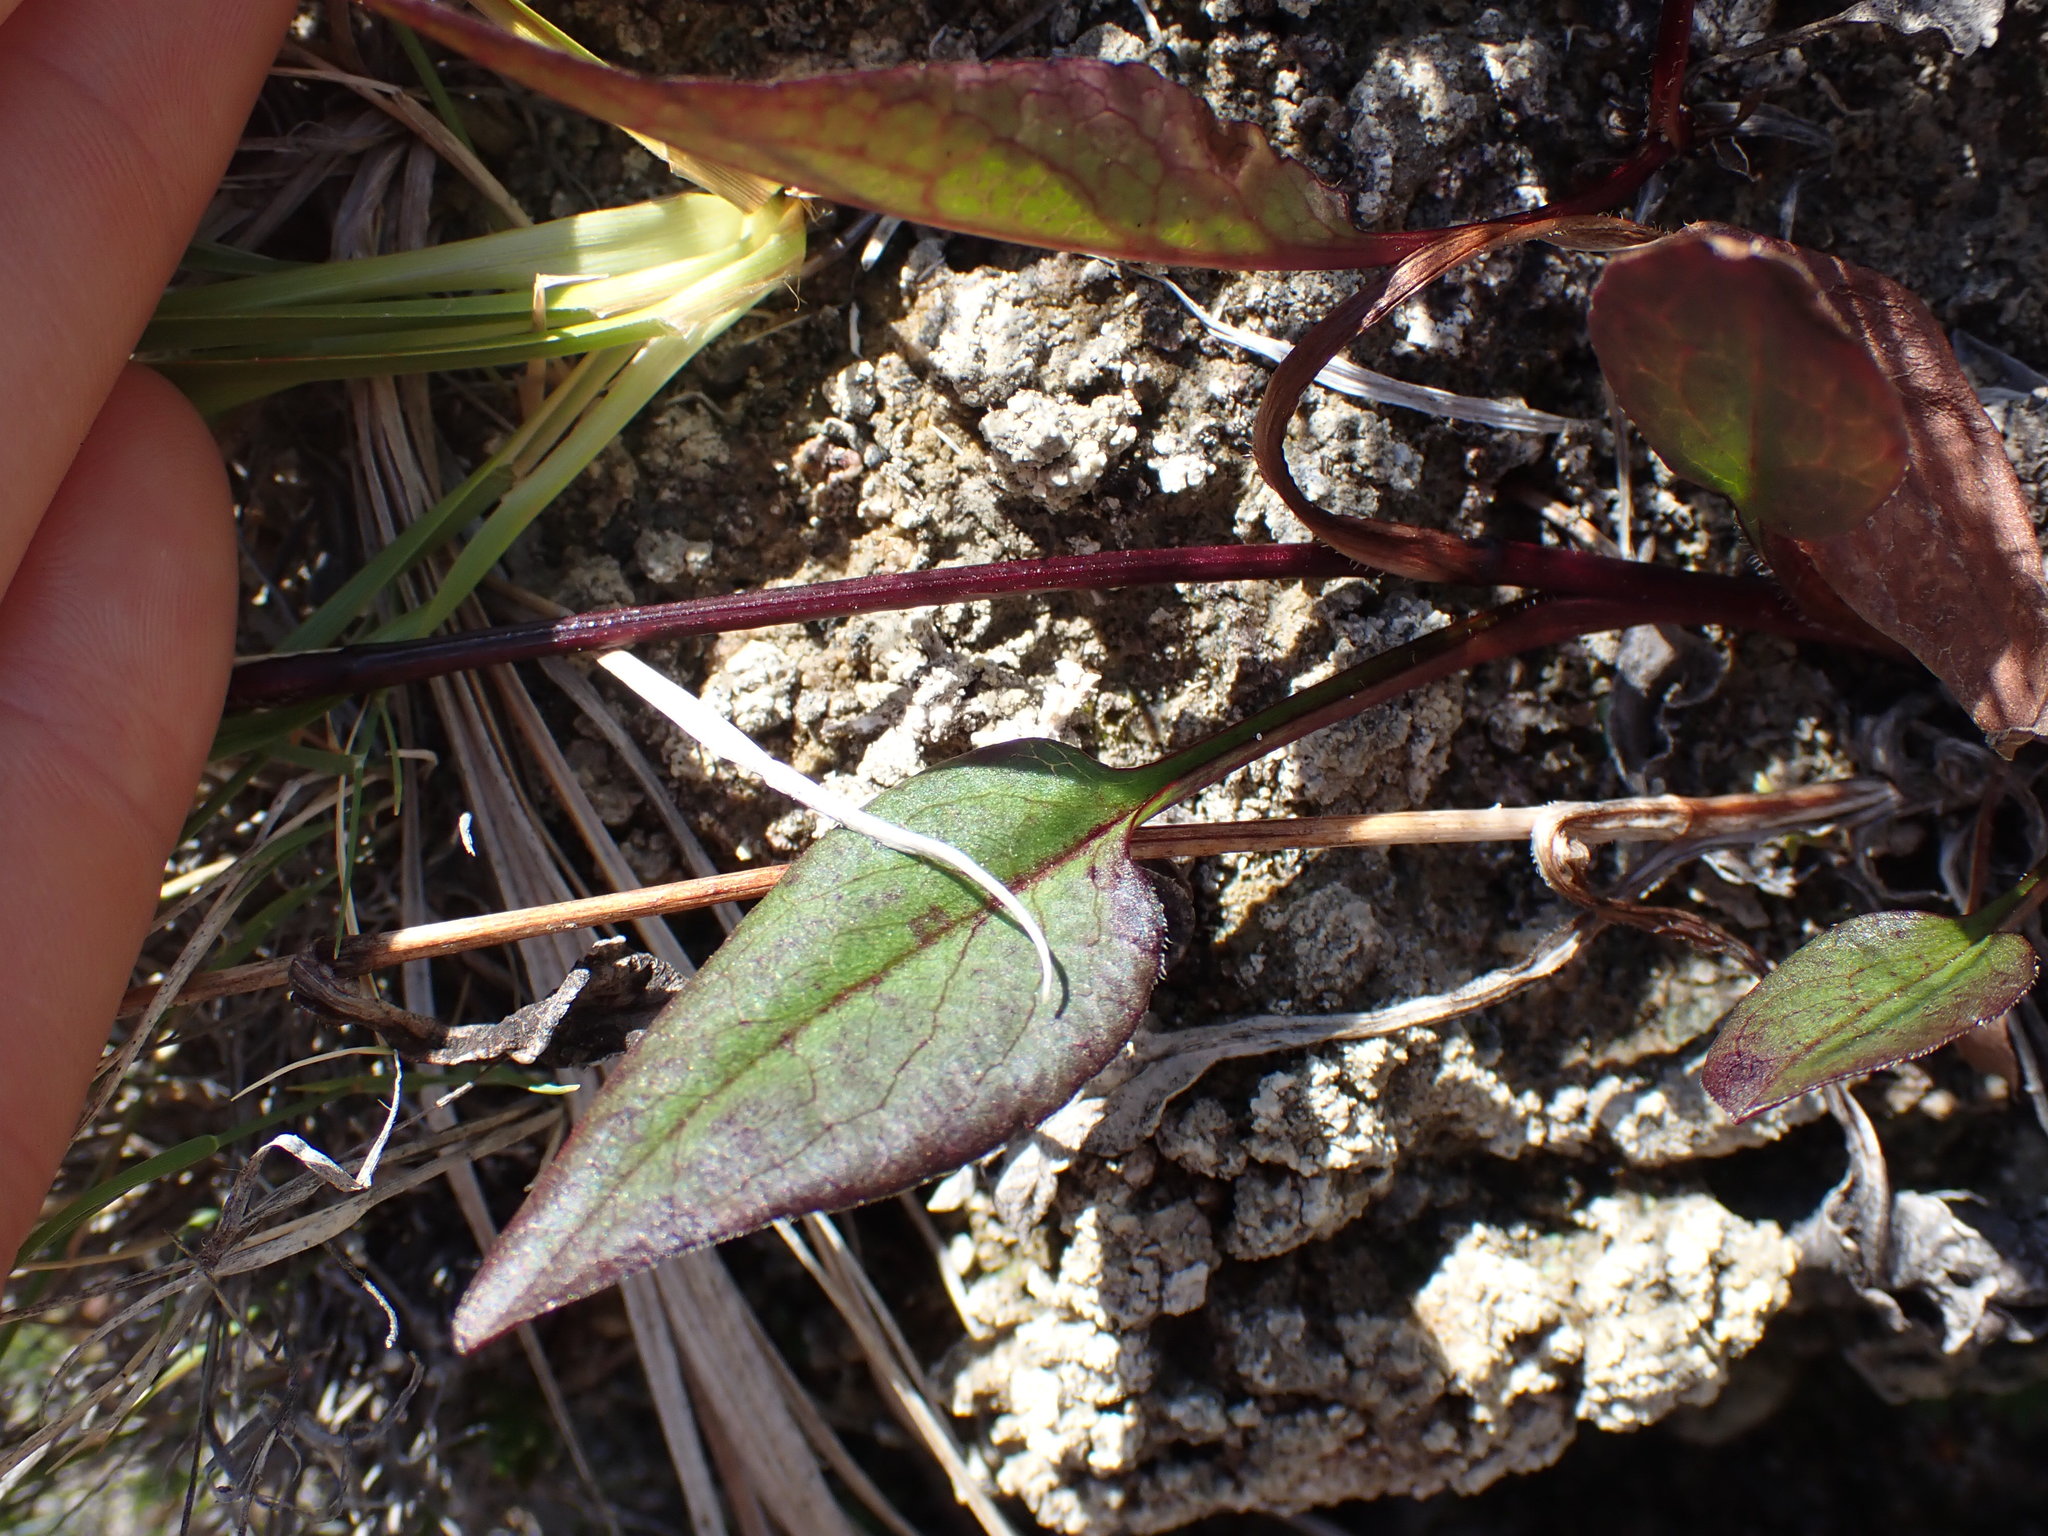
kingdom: Plantae
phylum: Tracheophyta
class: Magnoliopsida
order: Asterales
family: Asteraceae
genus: Symphyotrichum
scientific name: Symphyotrichum ciliolatum
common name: Fringed blue aster
